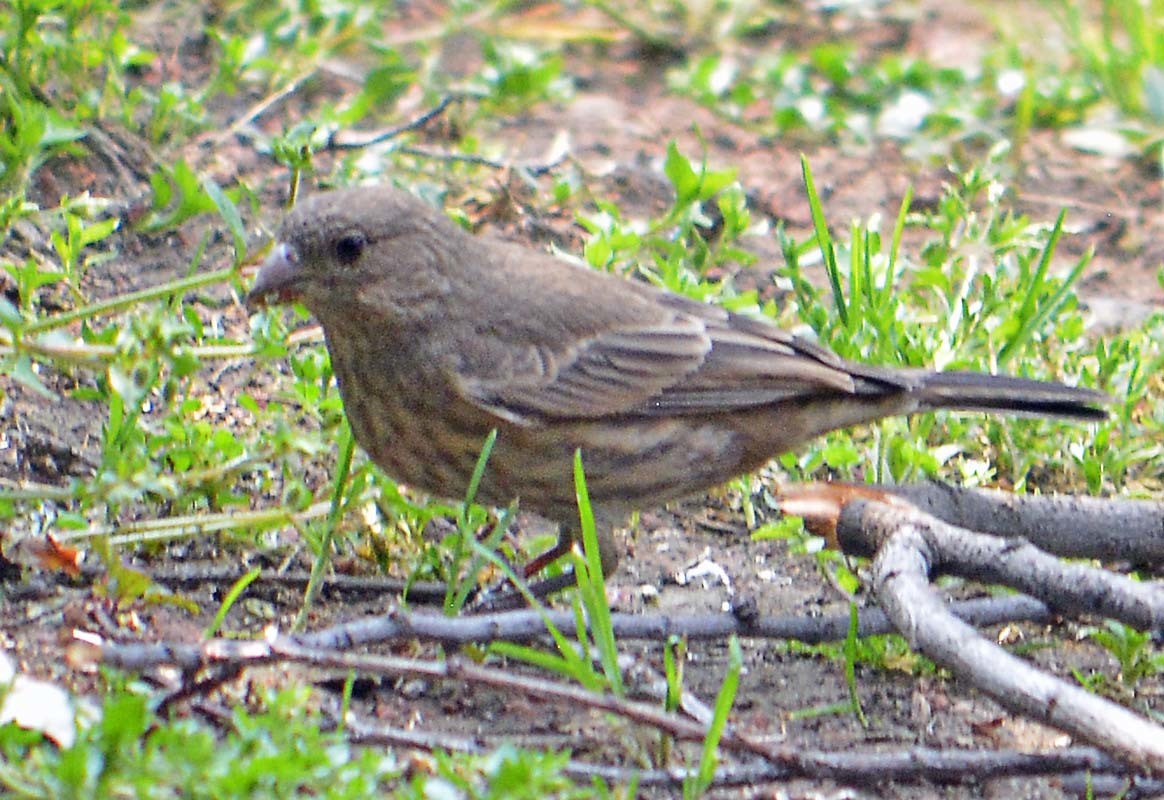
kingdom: Animalia
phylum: Chordata
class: Aves
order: Passeriformes
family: Fringillidae
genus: Haemorhous
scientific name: Haemorhous mexicanus
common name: House finch
